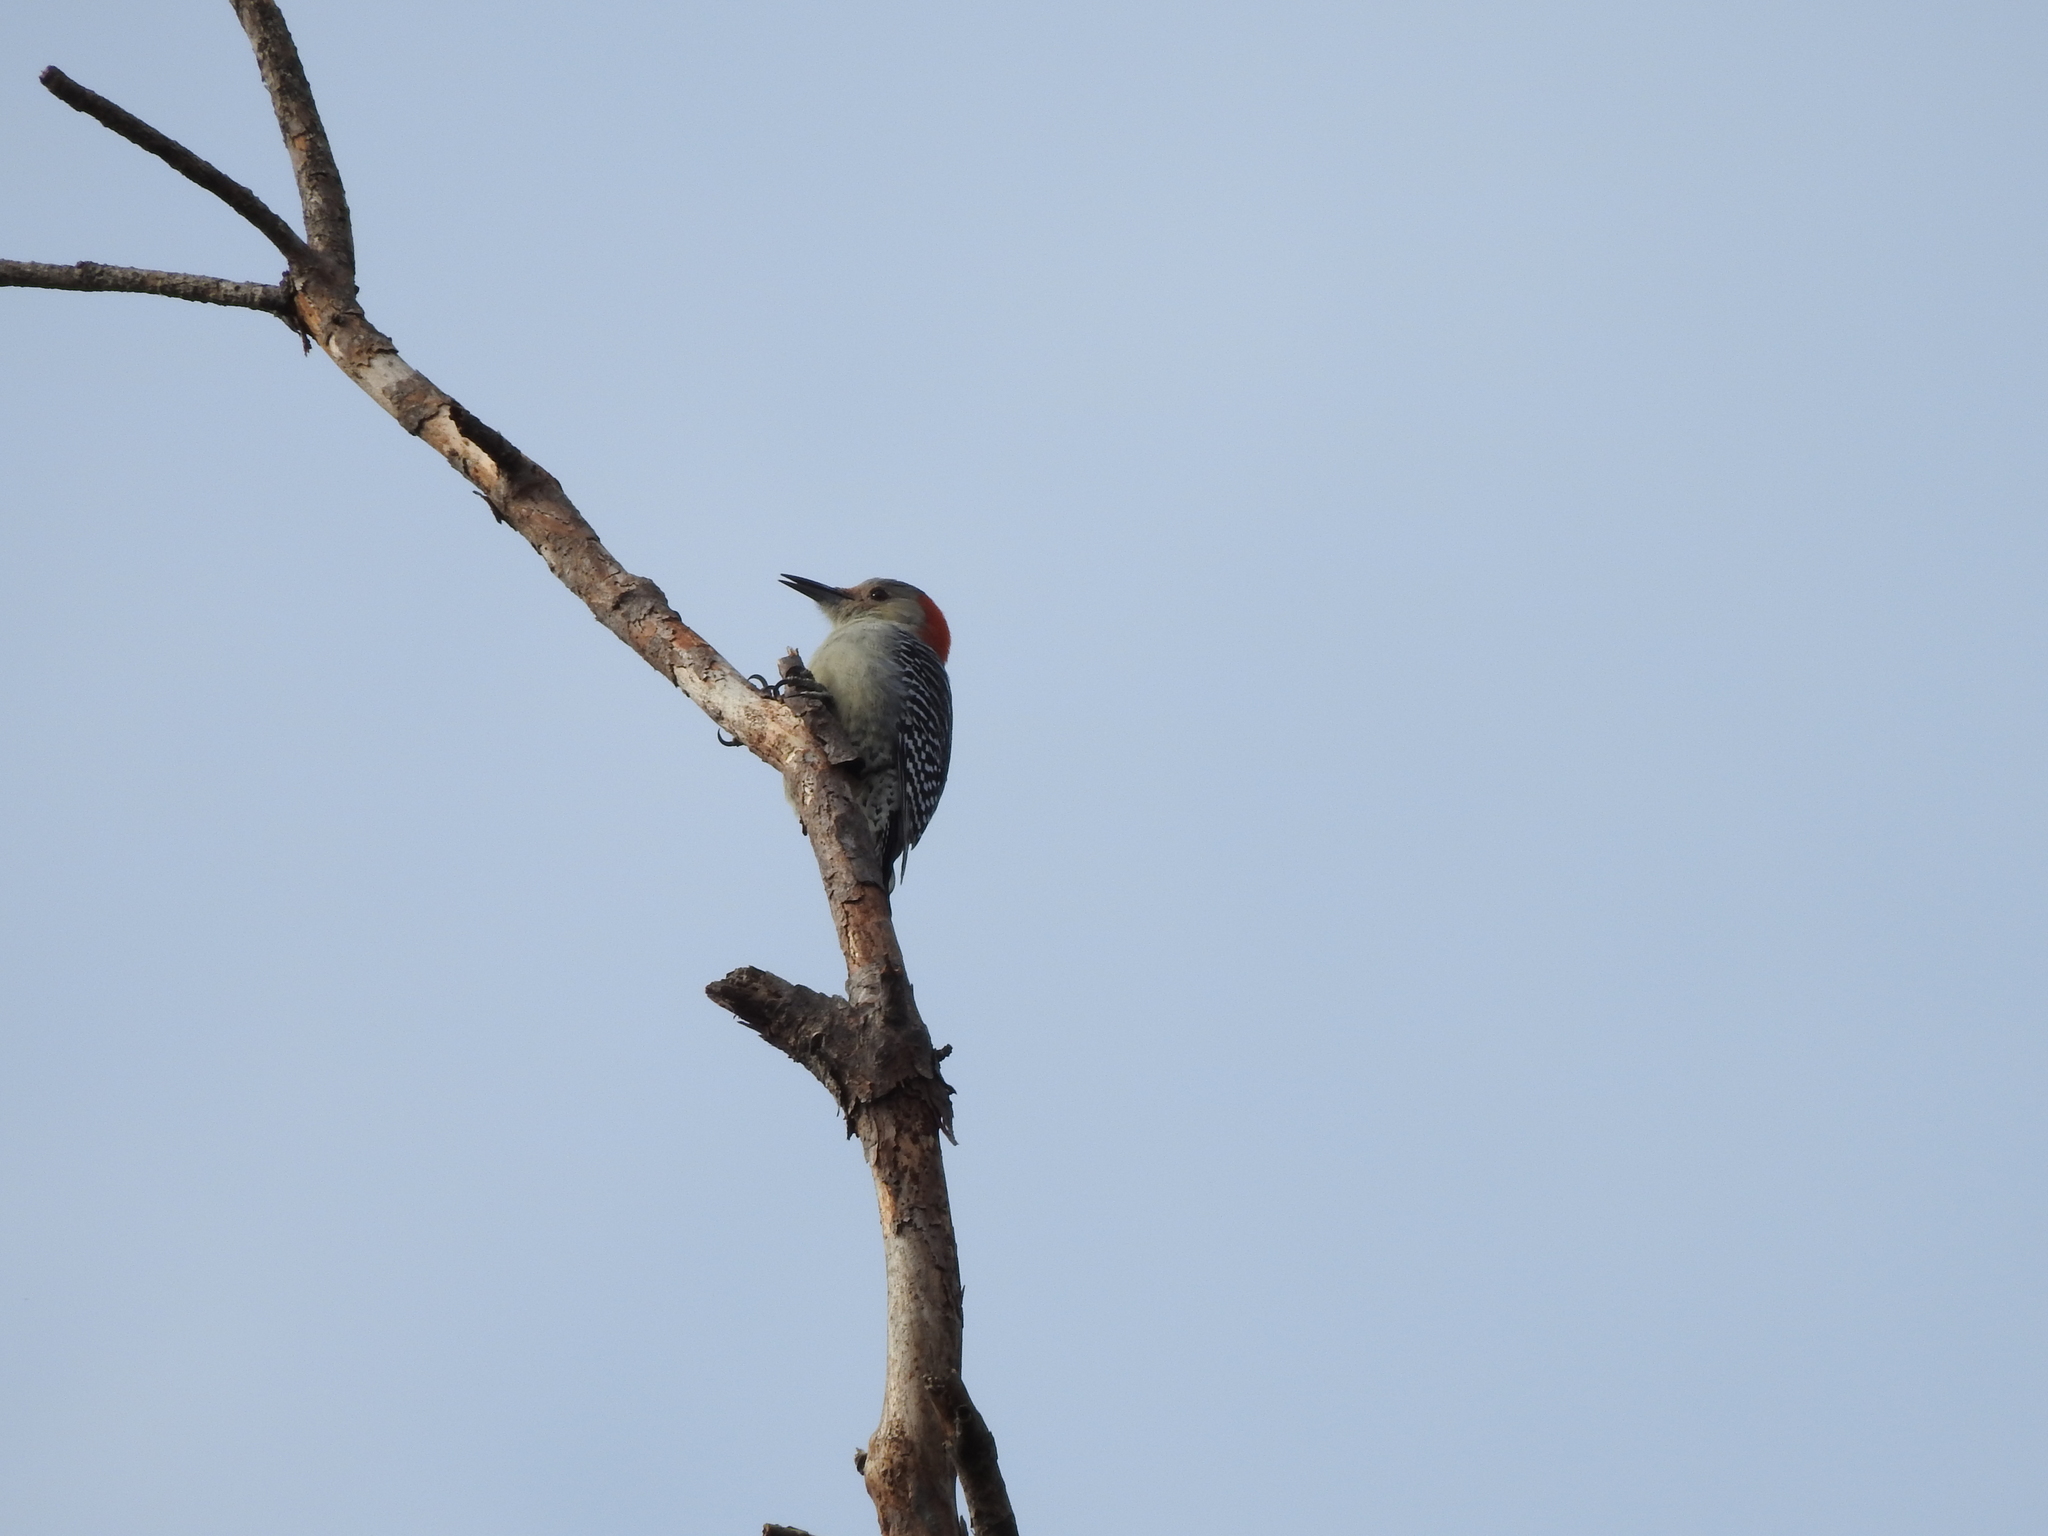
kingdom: Animalia
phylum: Chordata
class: Aves
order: Piciformes
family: Picidae
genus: Melanerpes
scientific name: Melanerpes carolinus
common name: Red-bellied woodpecker
